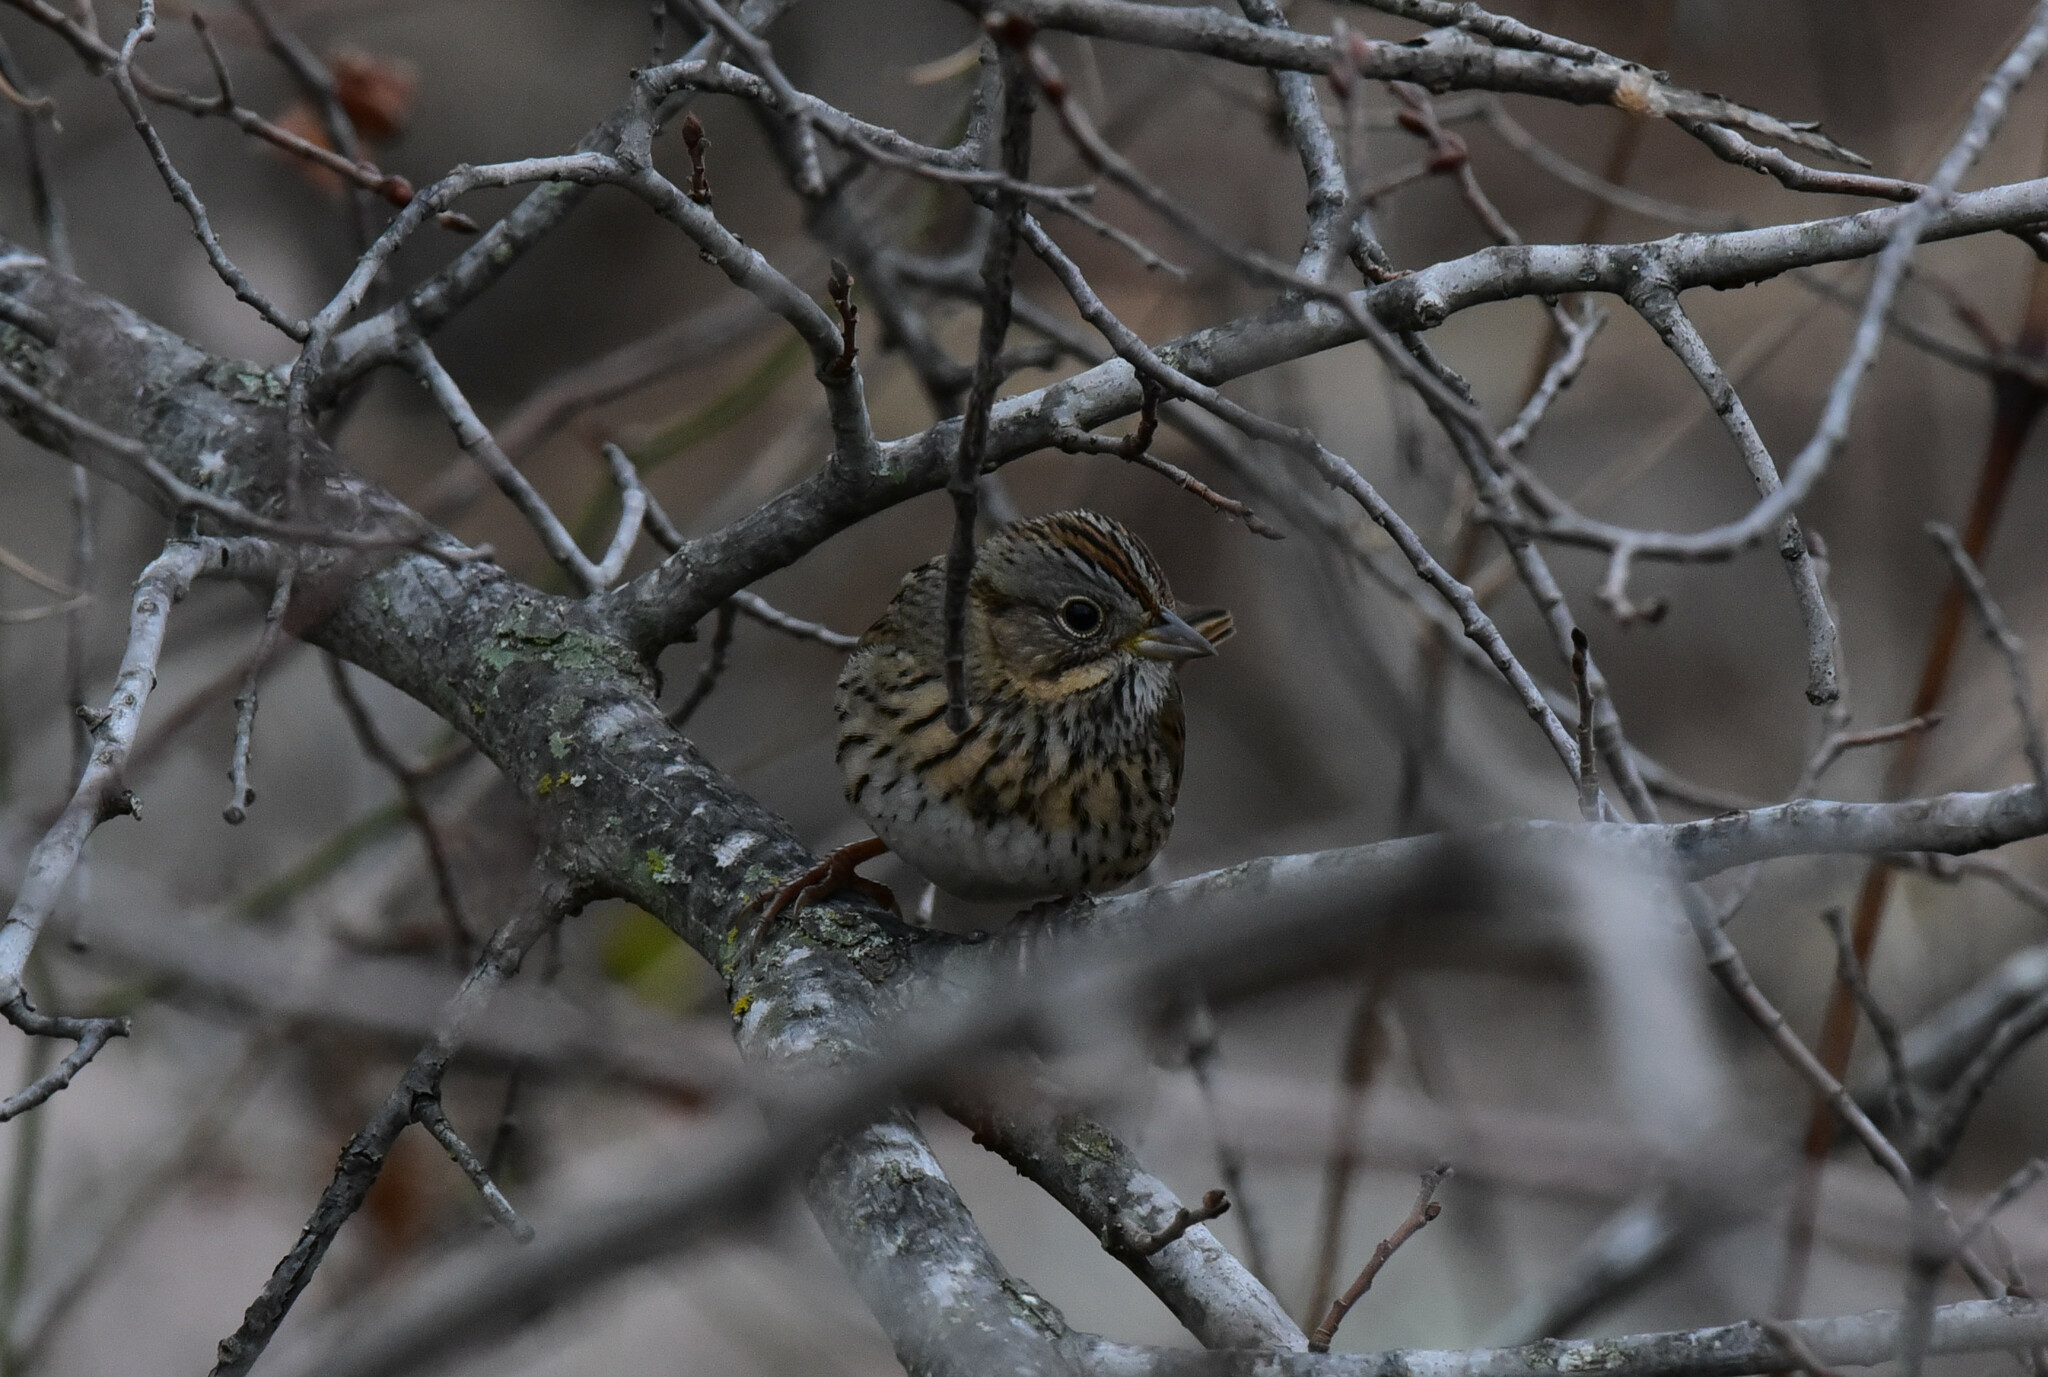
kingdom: Animalia
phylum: Chordata
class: Aves
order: Passeriformes
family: Passerellidae
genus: Melospiza
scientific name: Melospiza lincolnii
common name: Lincoln's sparrow
